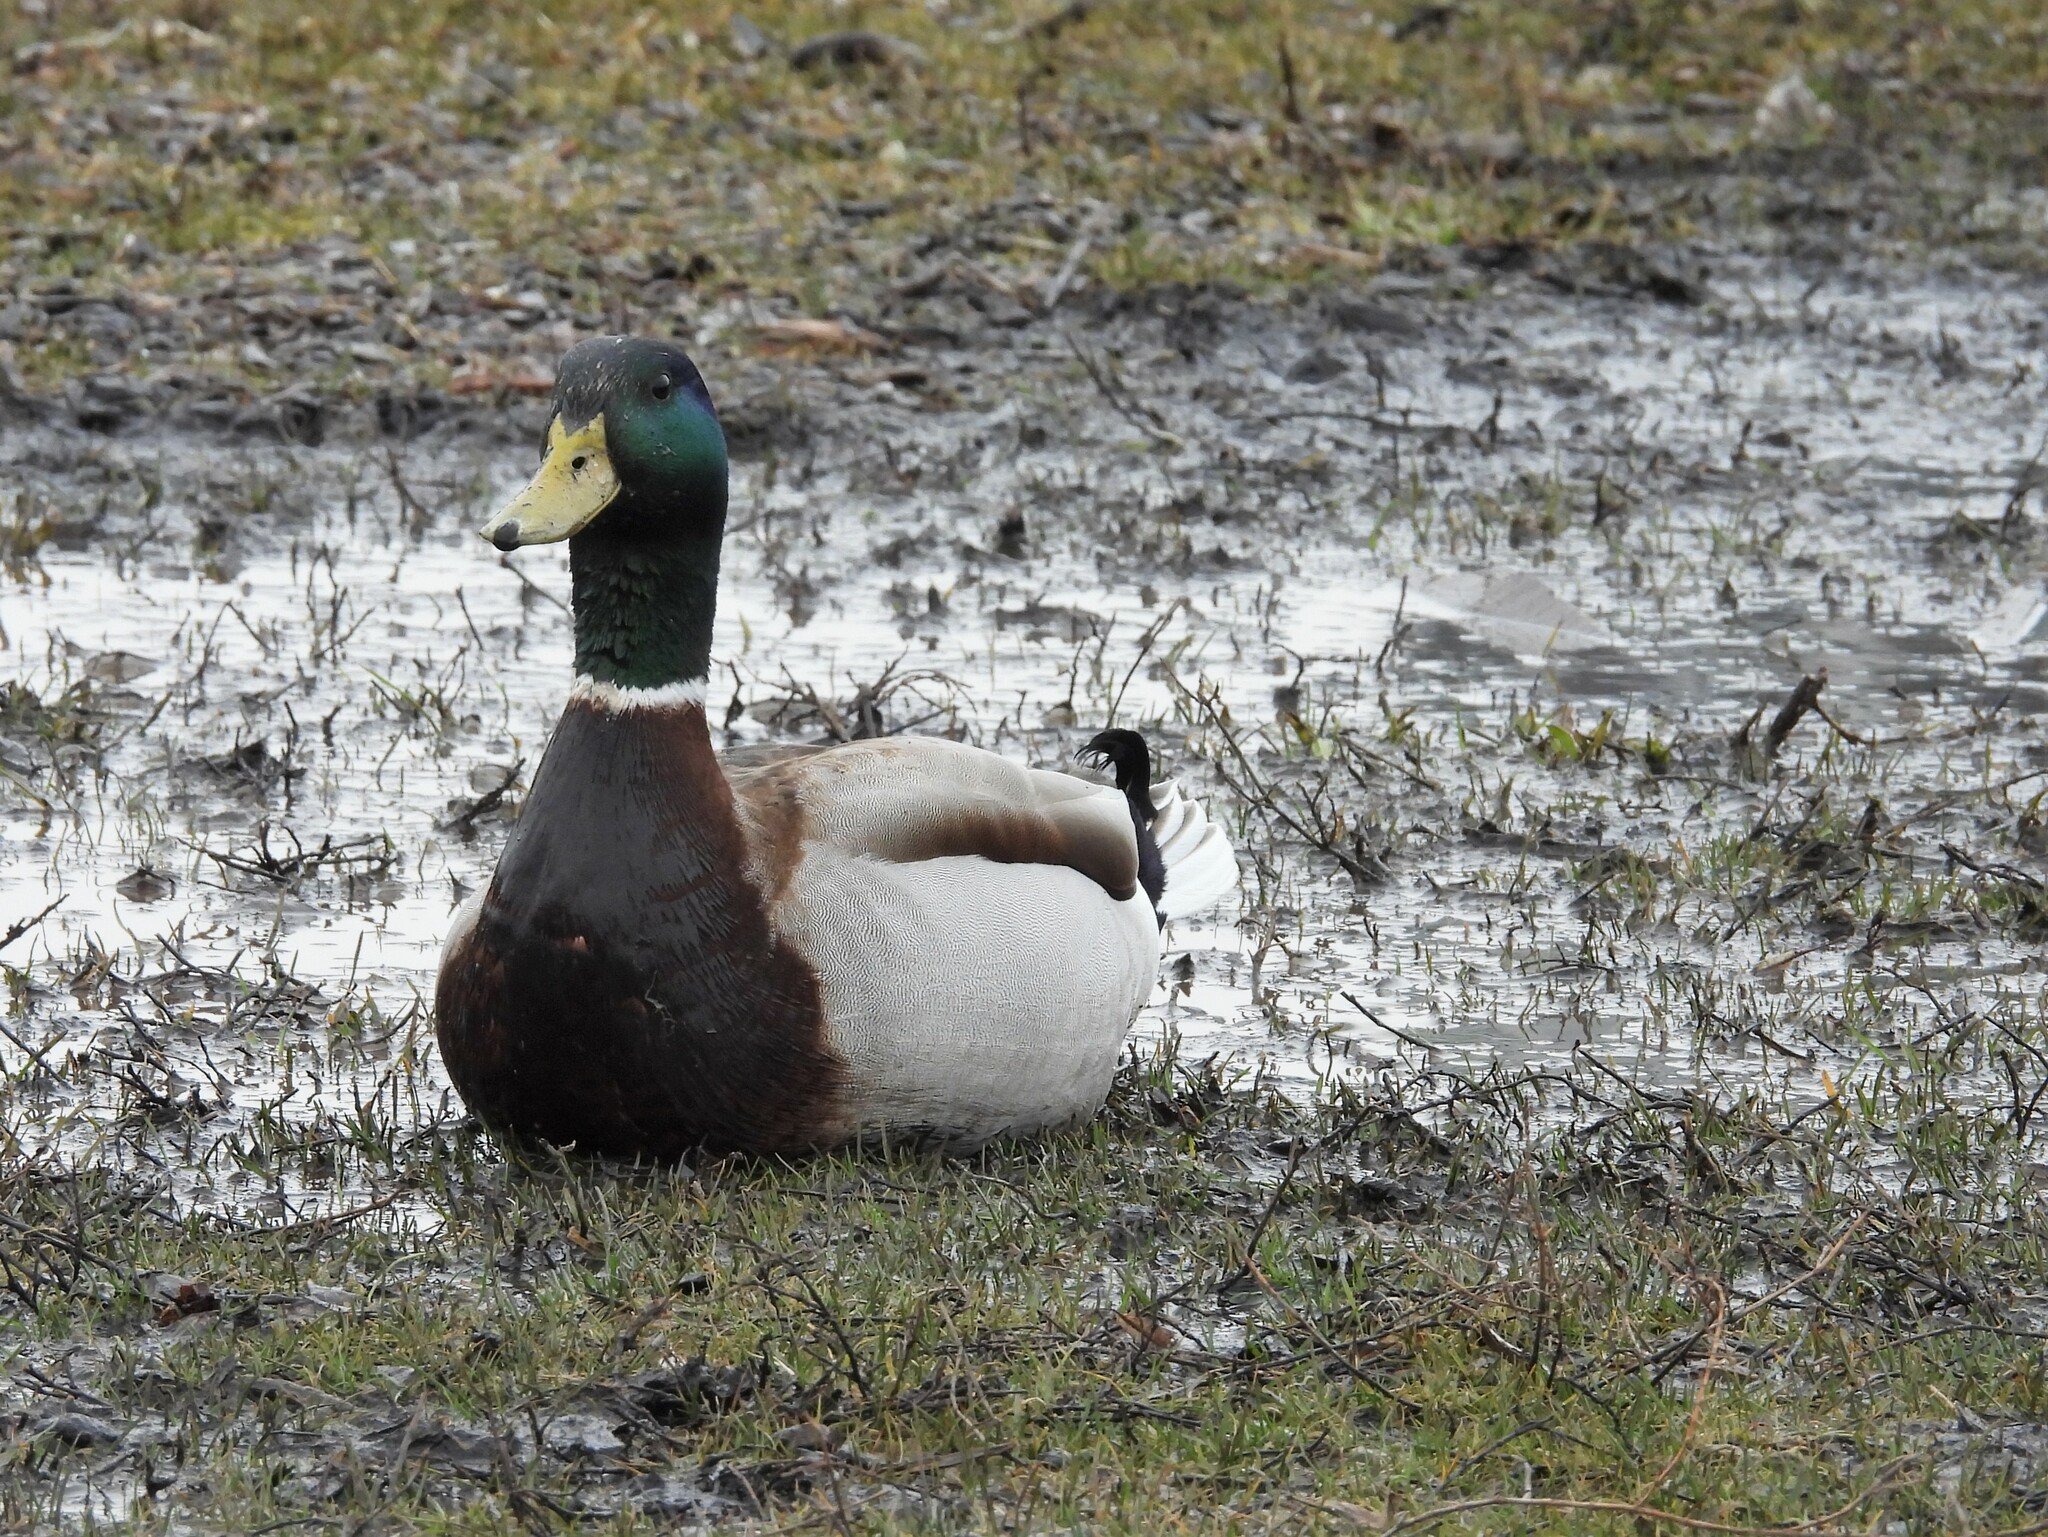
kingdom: Animalia
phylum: Chordata
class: Aves
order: Anseriformes
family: Anatidae
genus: Anas
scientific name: Anas platyrhynchos
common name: Mallard
